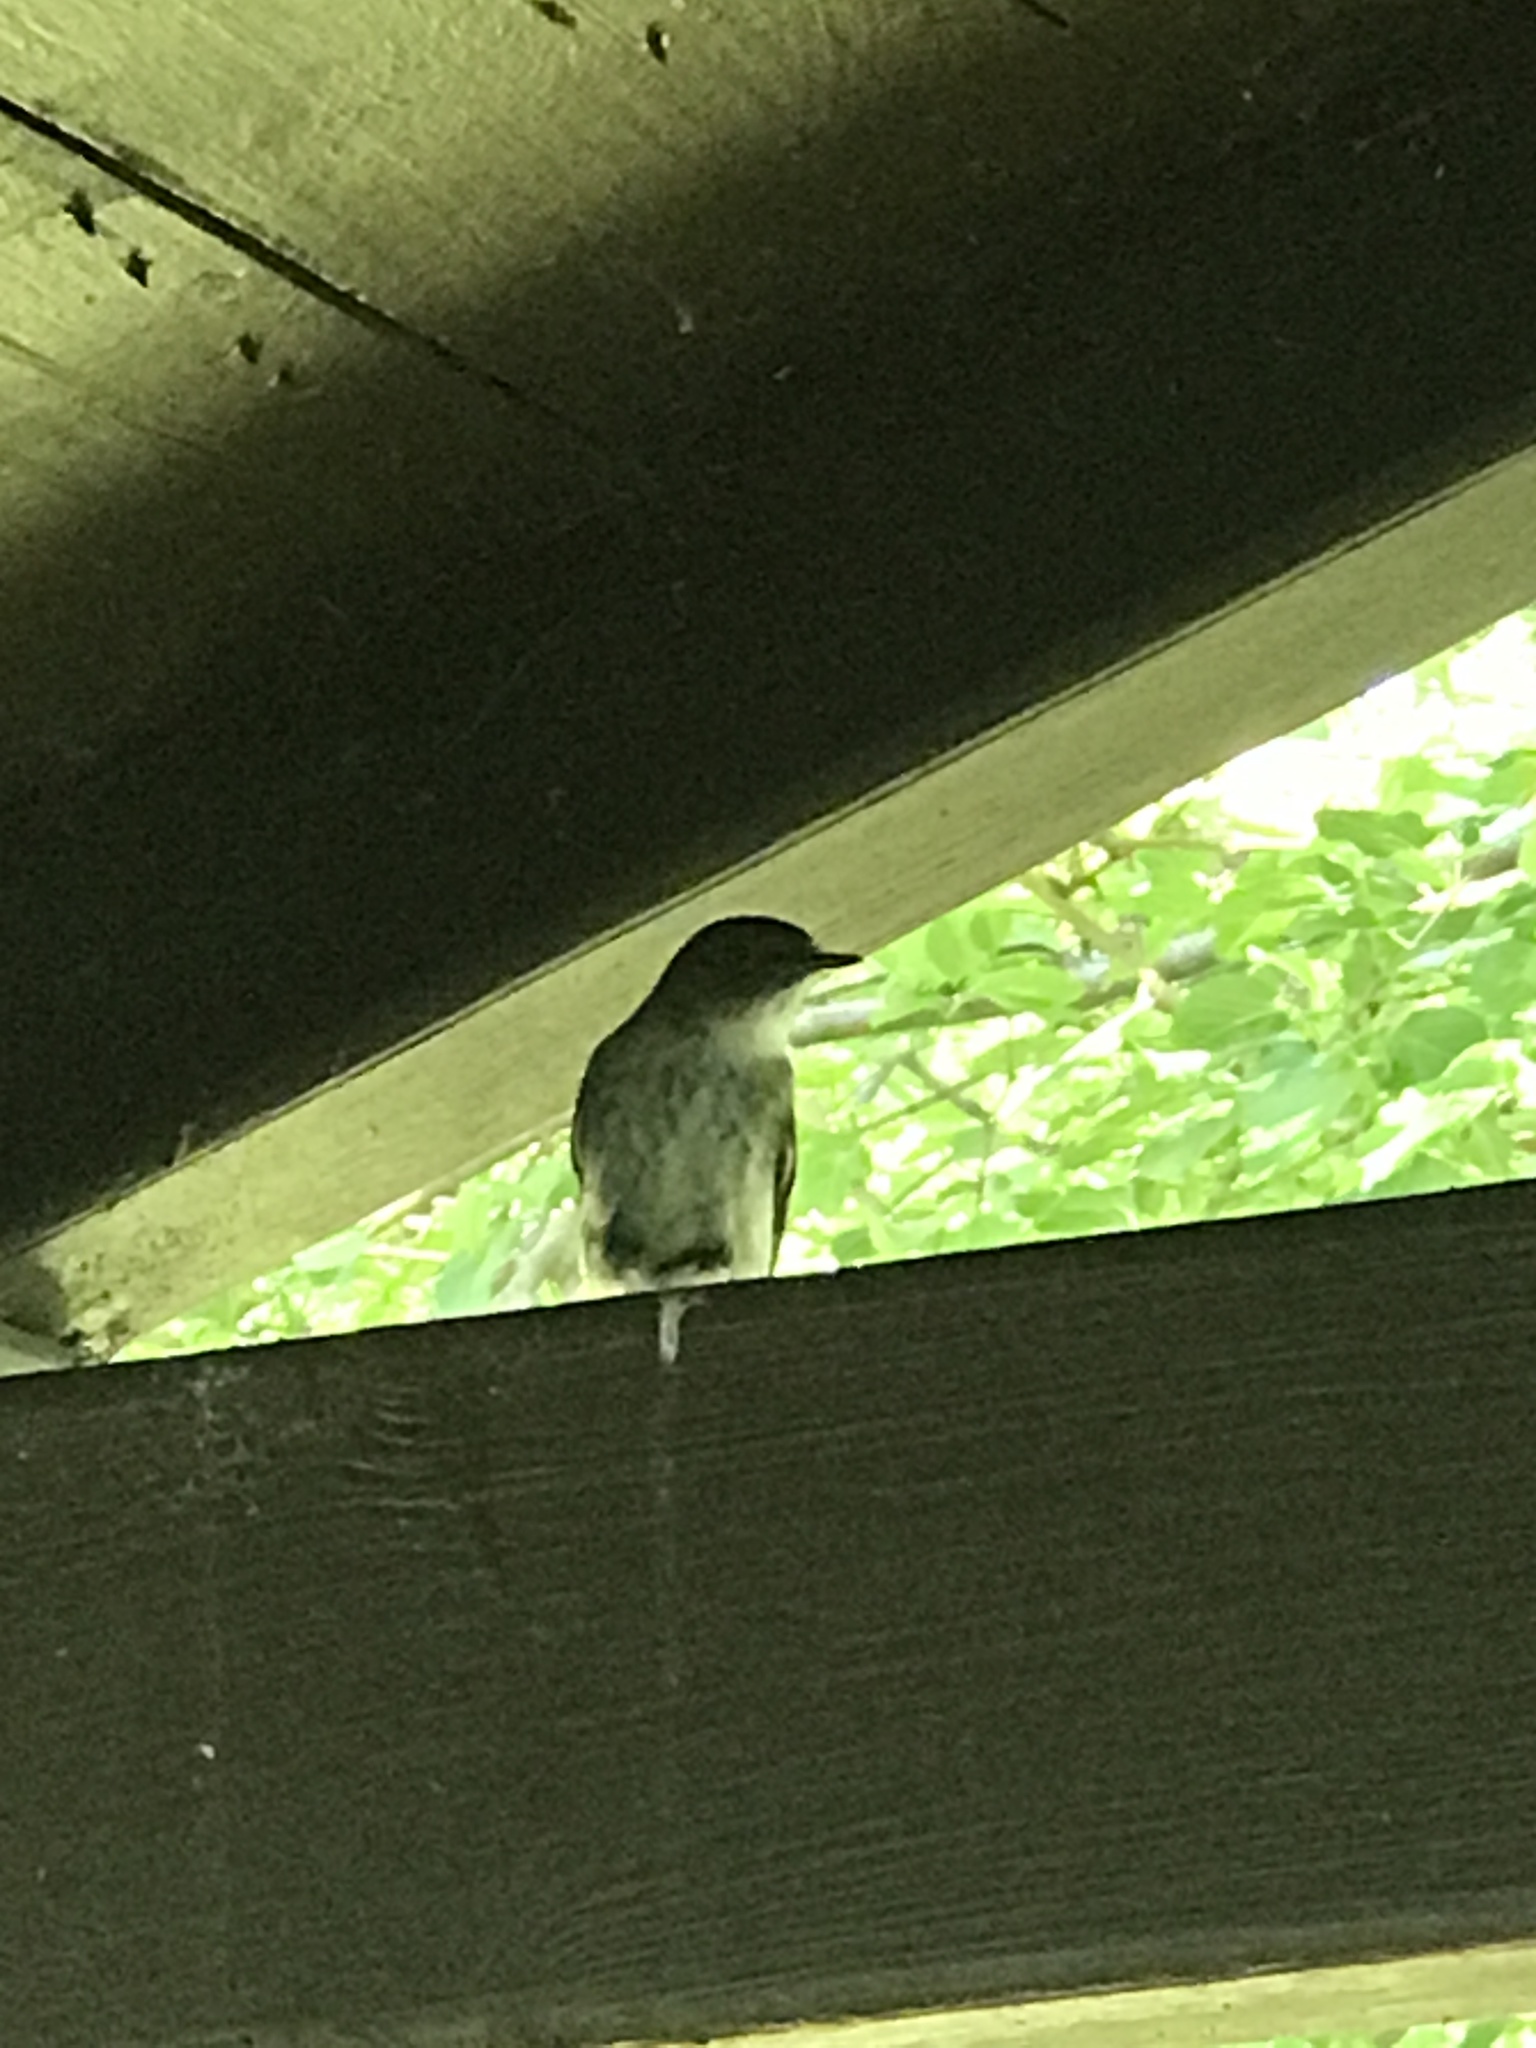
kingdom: Animalia
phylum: Chordata
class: Aves
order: Passeriformes
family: Tyrannidae
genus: Sayornis
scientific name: Sayornis phoebe
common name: Eastern phoebe
